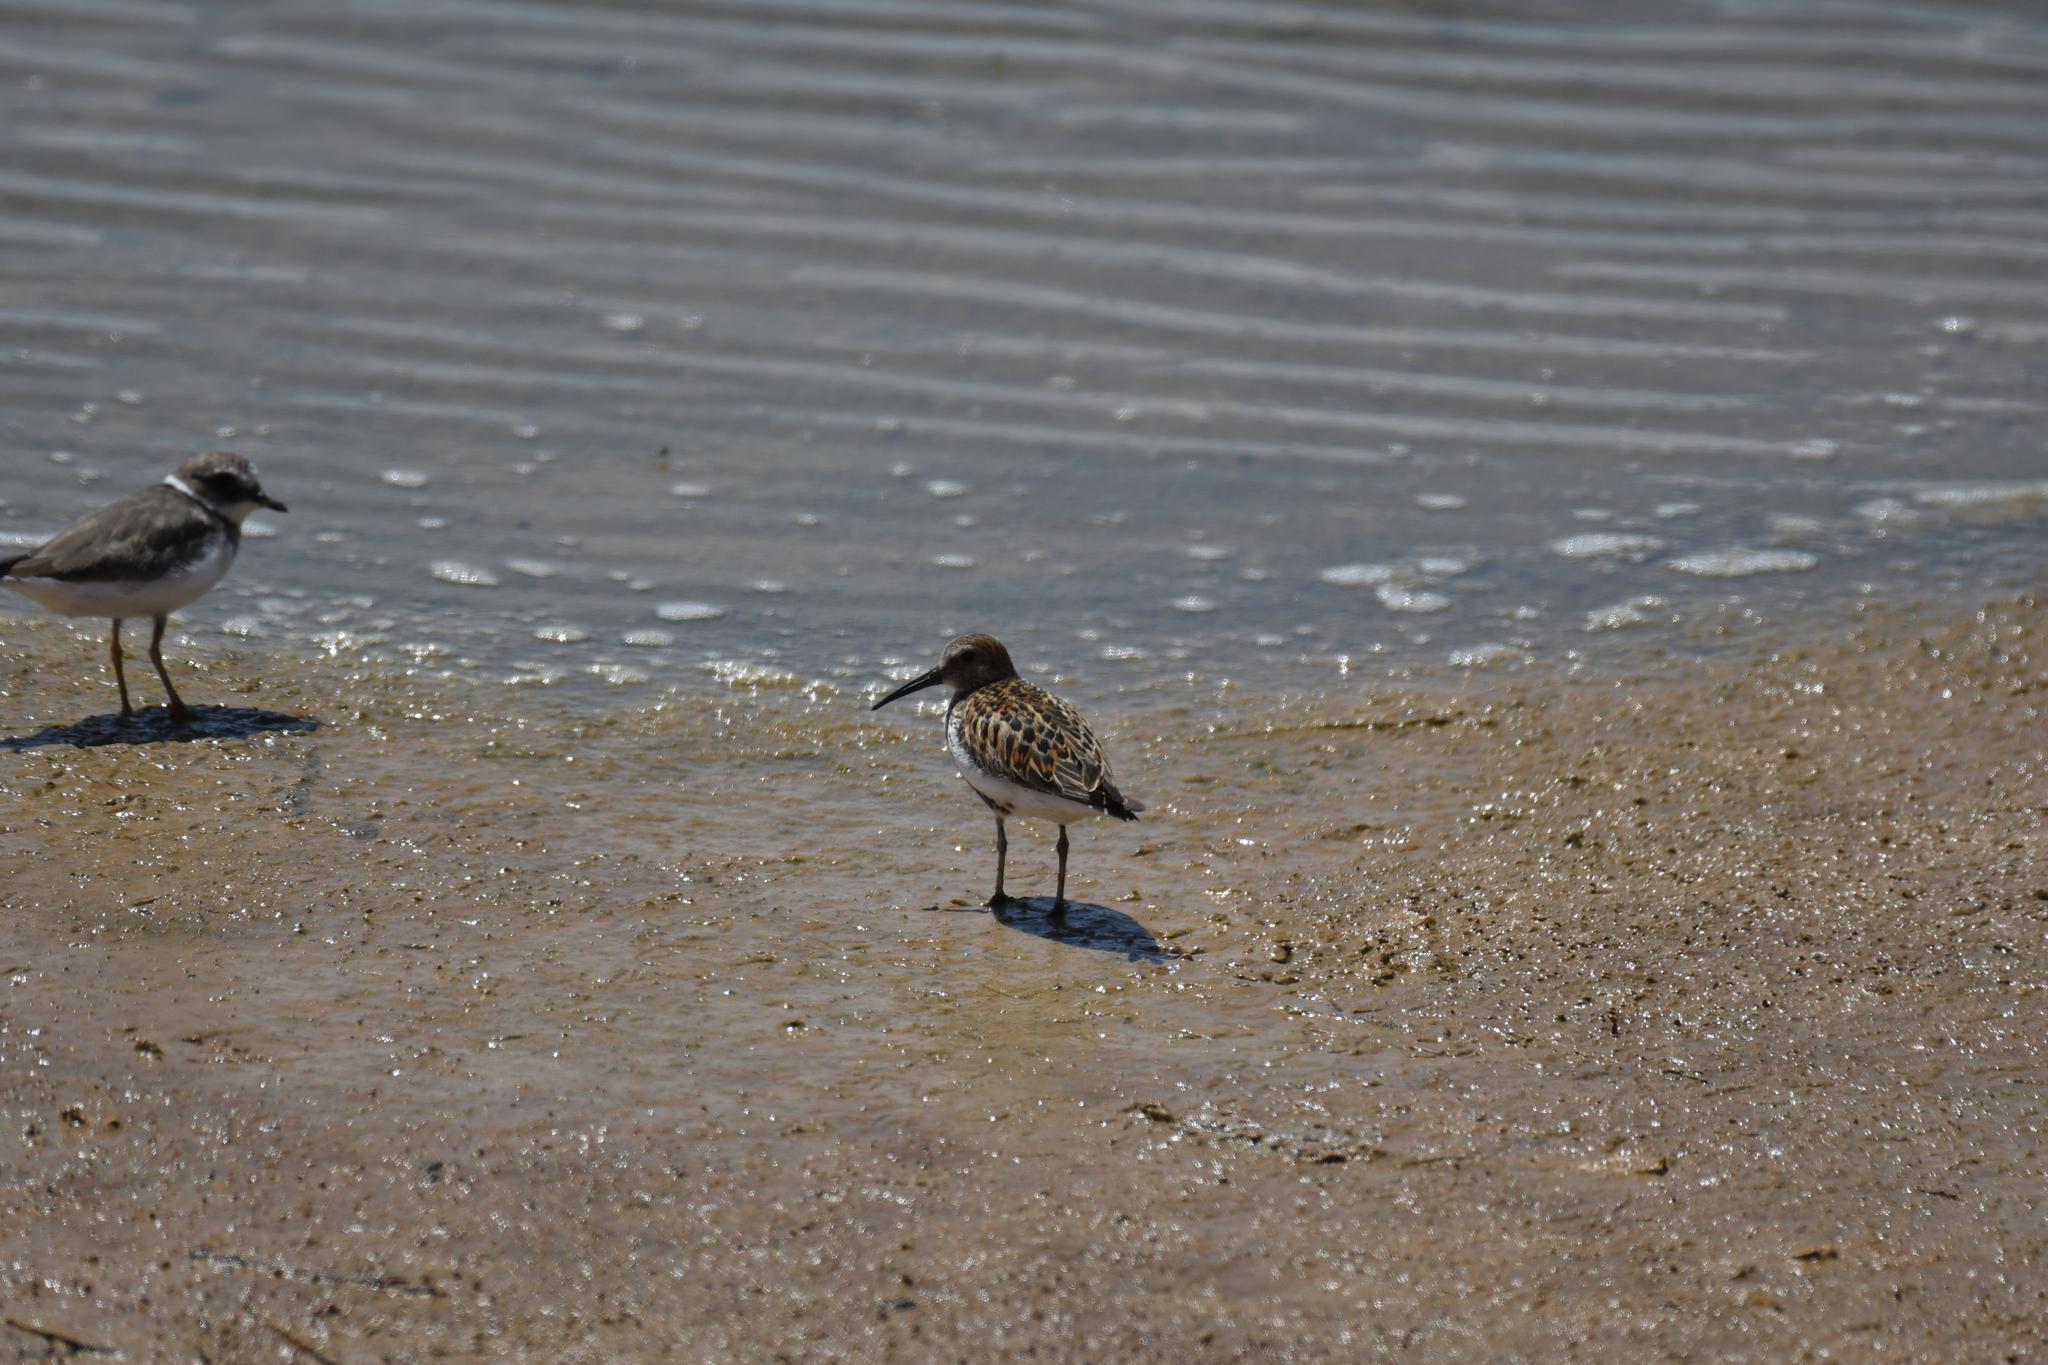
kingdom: Animalia
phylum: Chordata
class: Aves
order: Charadriiformes
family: Scolopacidae
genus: Calidris
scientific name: Calidris alpina
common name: Dunlin
